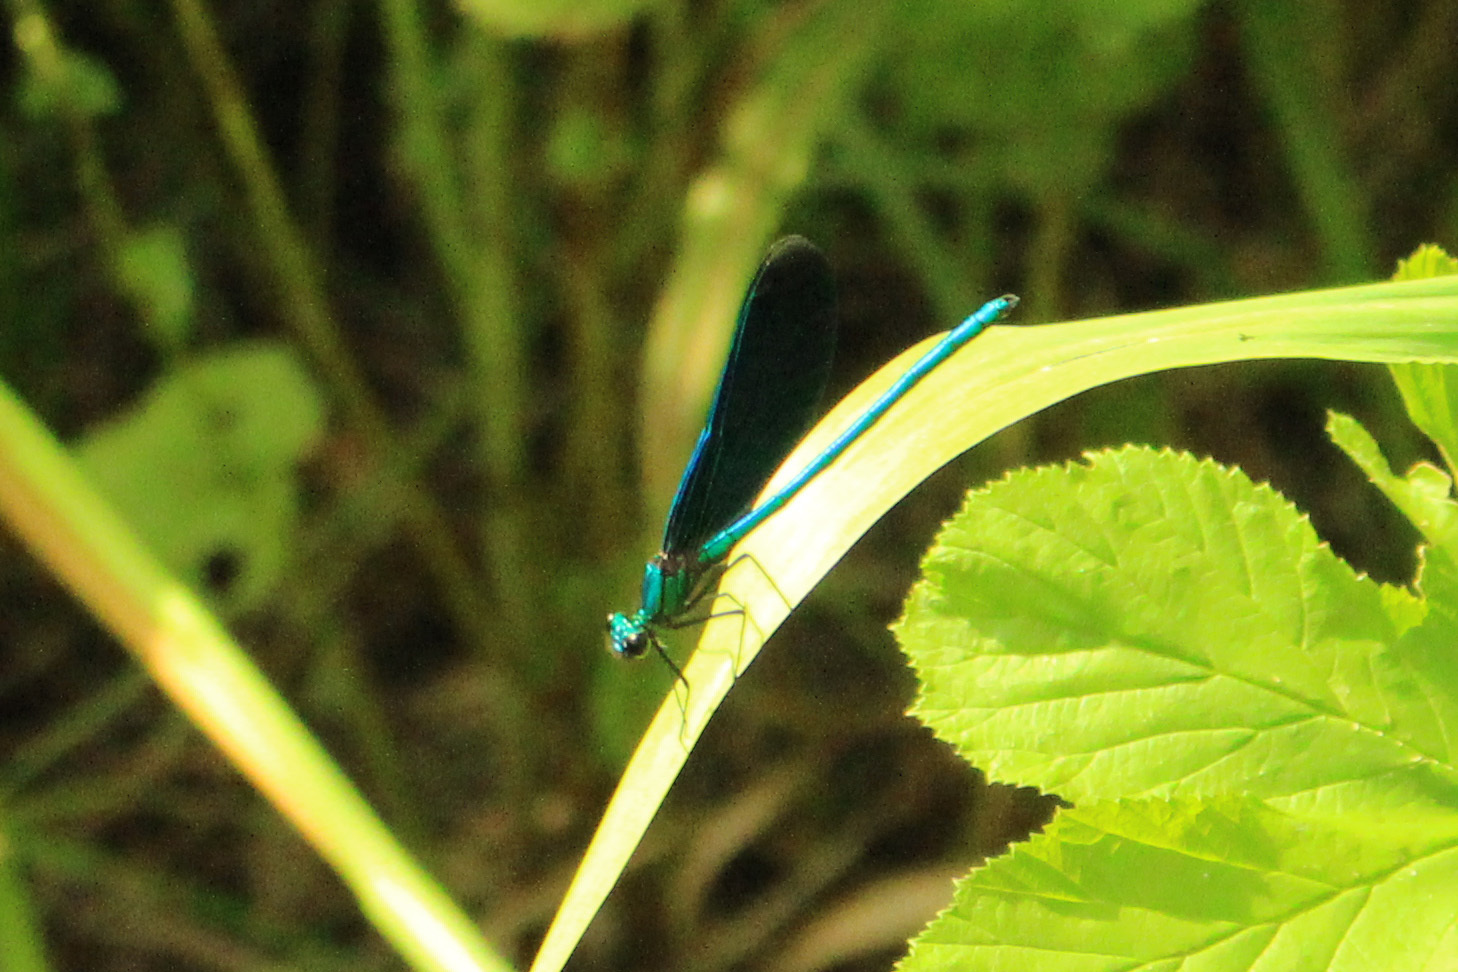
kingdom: Animalia
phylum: Arthropoda
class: Insecta
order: Odonata
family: Calopterygidae
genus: Calopteryx
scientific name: Calopteryx virgo
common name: Beautiful demoiselle
